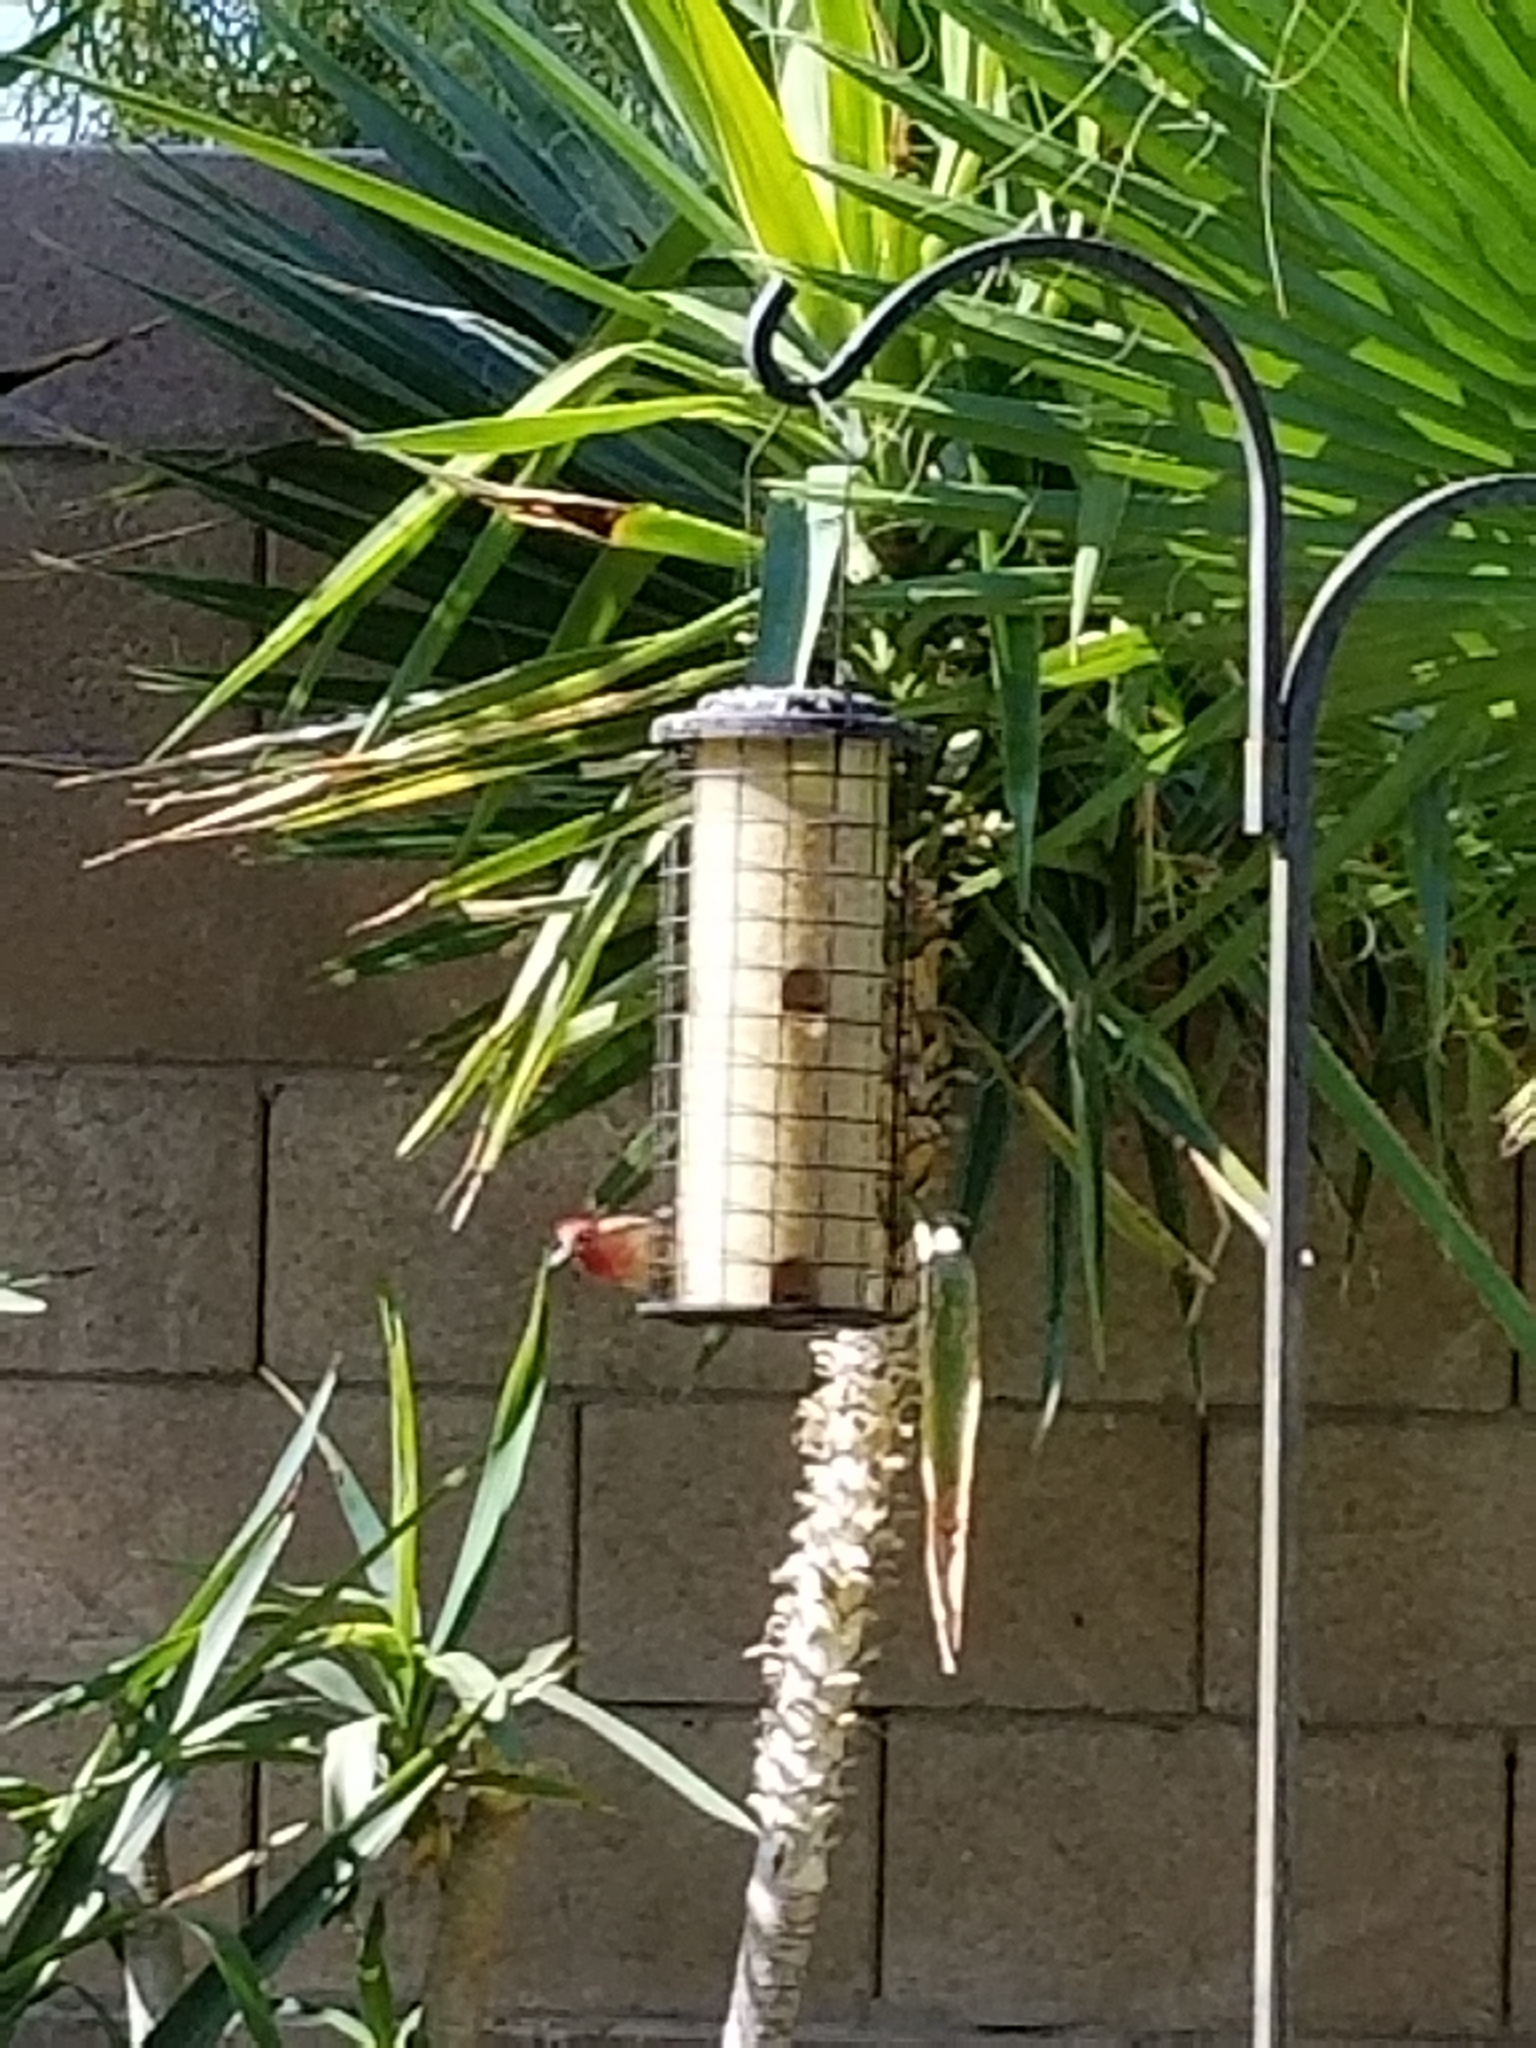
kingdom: Animalia
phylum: Chordata
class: Aves
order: Passeriformes
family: Fringillidae
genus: Haemorhous
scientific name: Haemorhous mexicanus
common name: House finch
